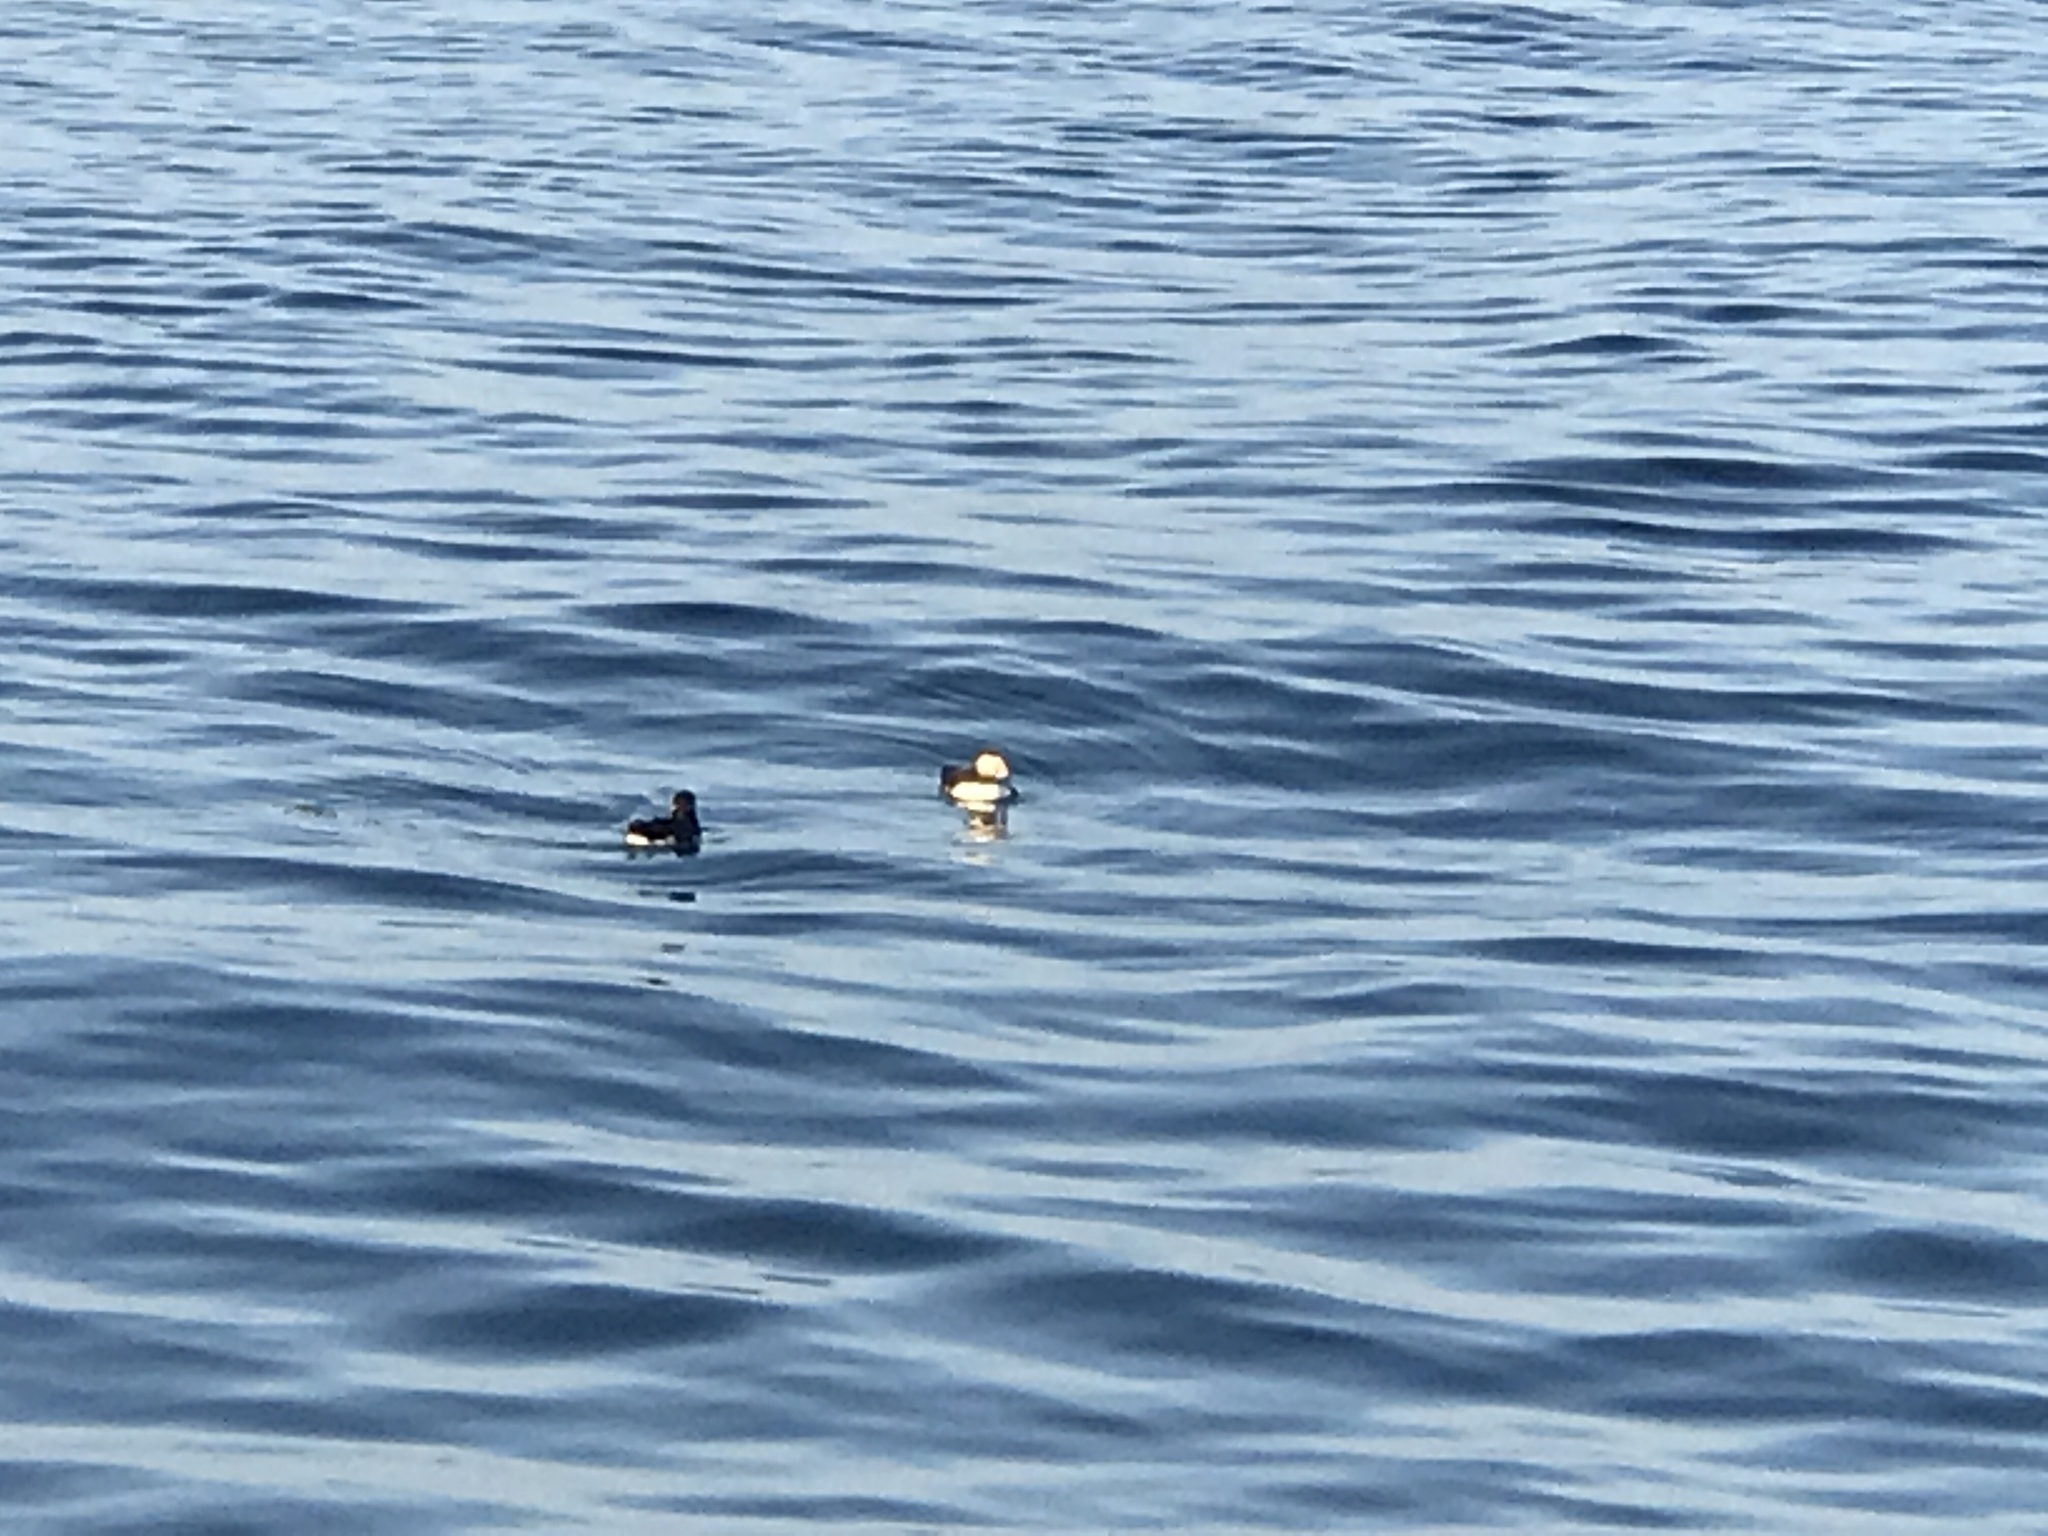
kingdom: Animalia
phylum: Chordata
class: Aves
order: Charadriiformes
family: Alcidae
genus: Fratercula
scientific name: Fratercula arctica
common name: Atlantic puffin
